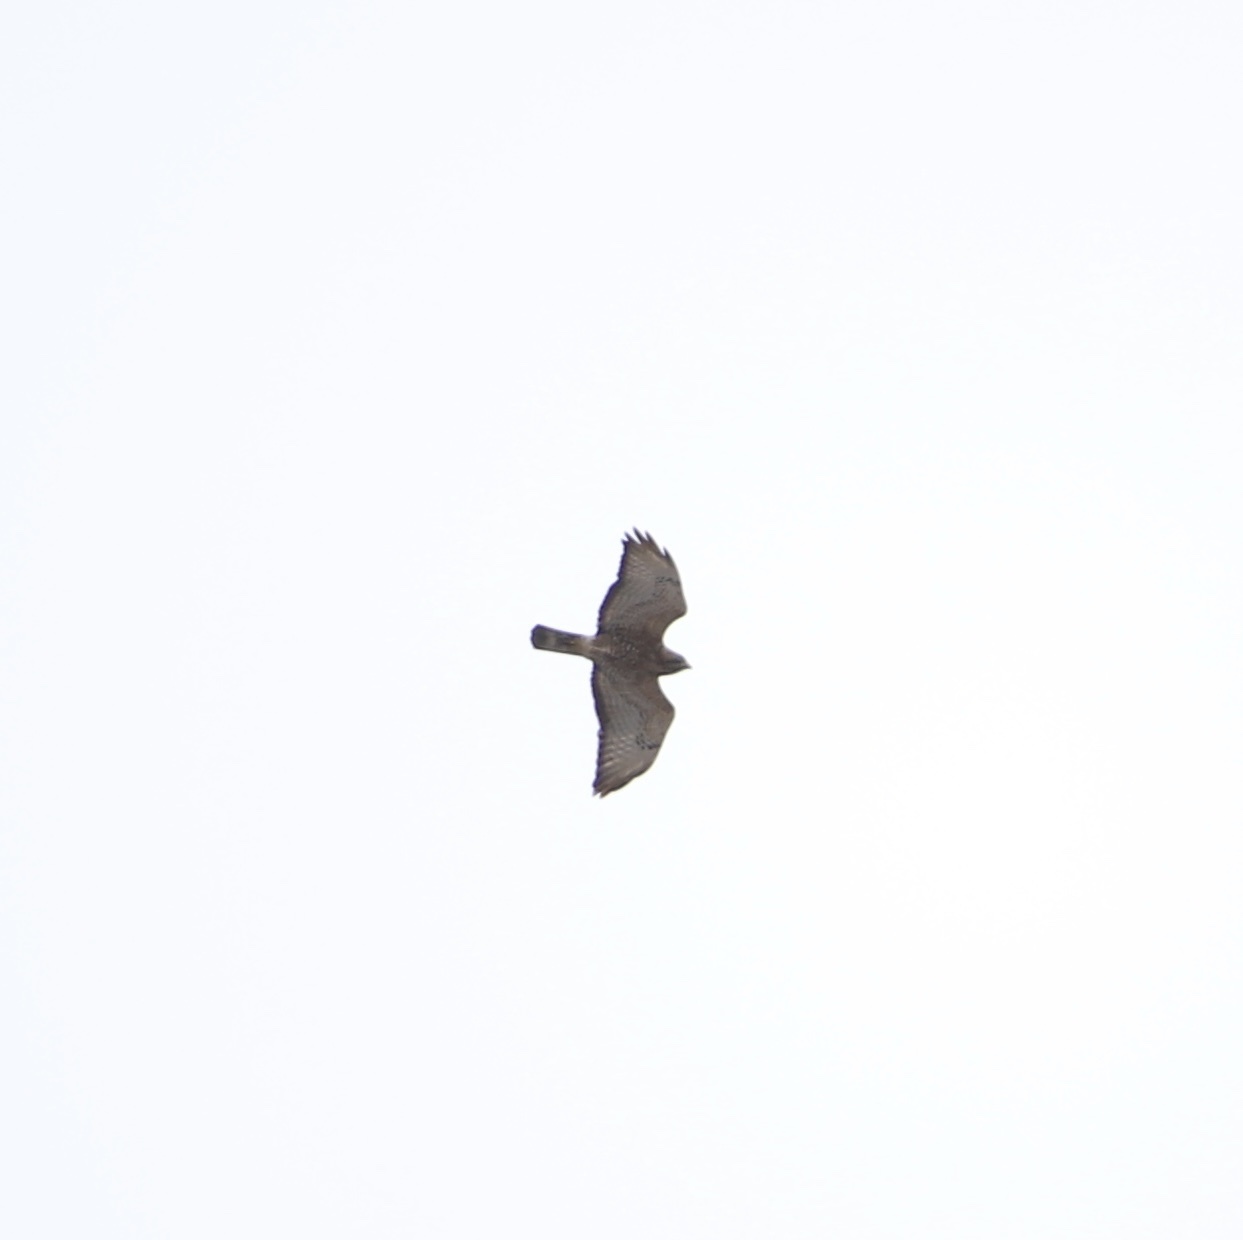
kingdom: Animalia
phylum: Chordata
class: Aves
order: Accipitriformes
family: Accipitridae
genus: Buteo
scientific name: Buteo platypterus
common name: Broad-winged hawk
